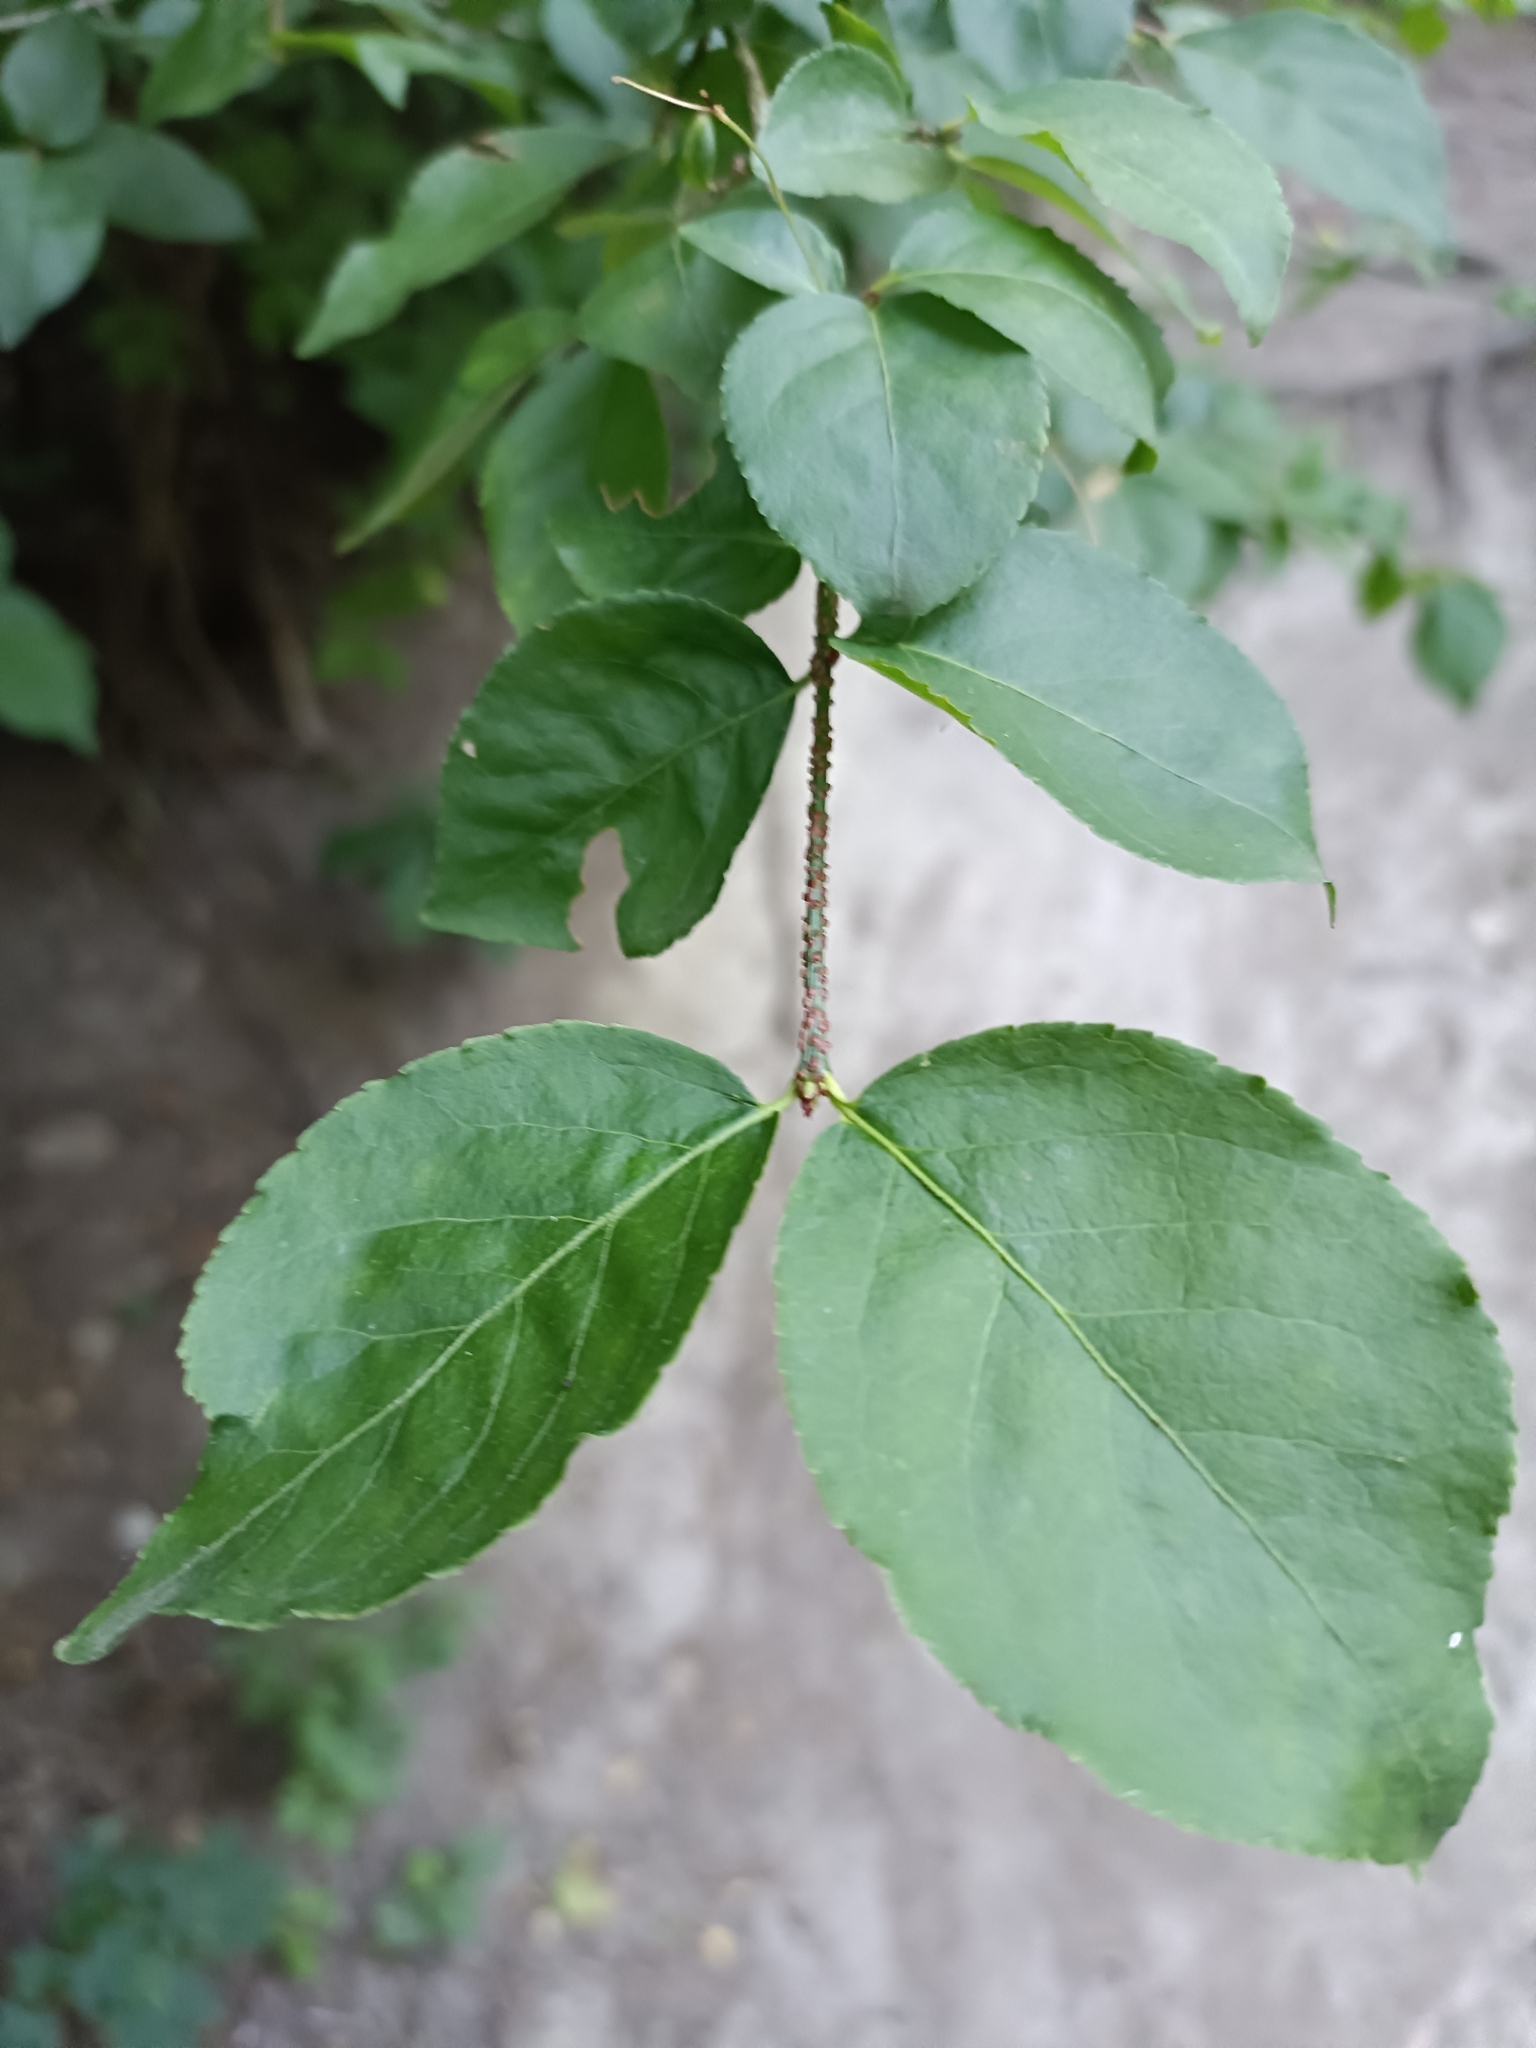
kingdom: Plantae
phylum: Tracheophyta
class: Magnoliopsida
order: Celastrales
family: Celastraceae
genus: Euonymus
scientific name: Euonymus verrucosus
